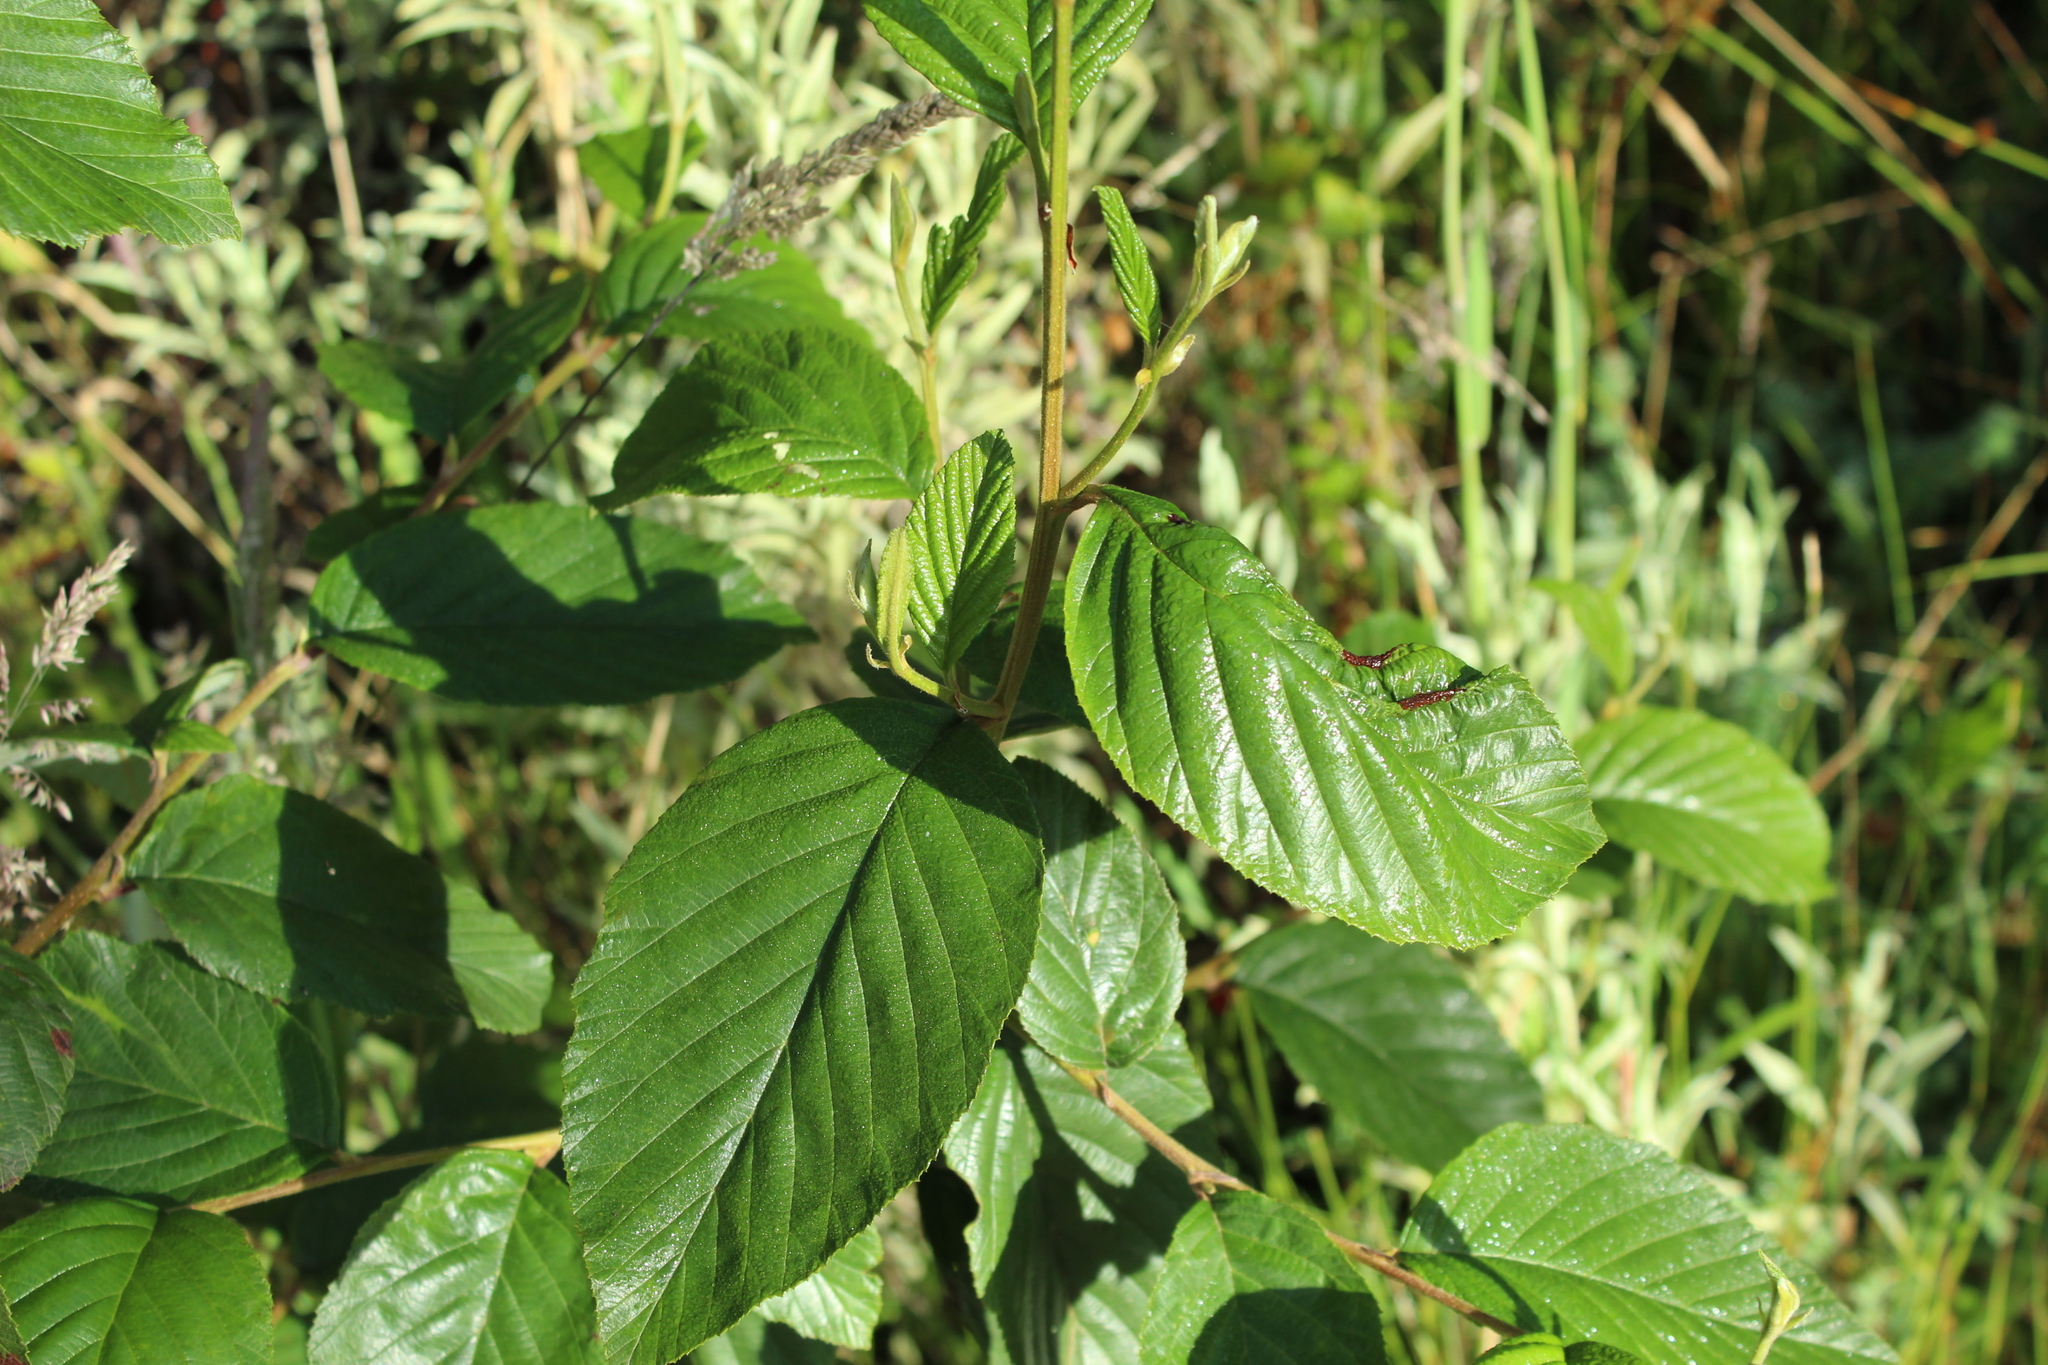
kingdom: Plantae
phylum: Tracheophyta
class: Magnoliopsida
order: Fagales
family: Betulaceae
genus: Alnus
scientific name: Alnus acuminata
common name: Alder
